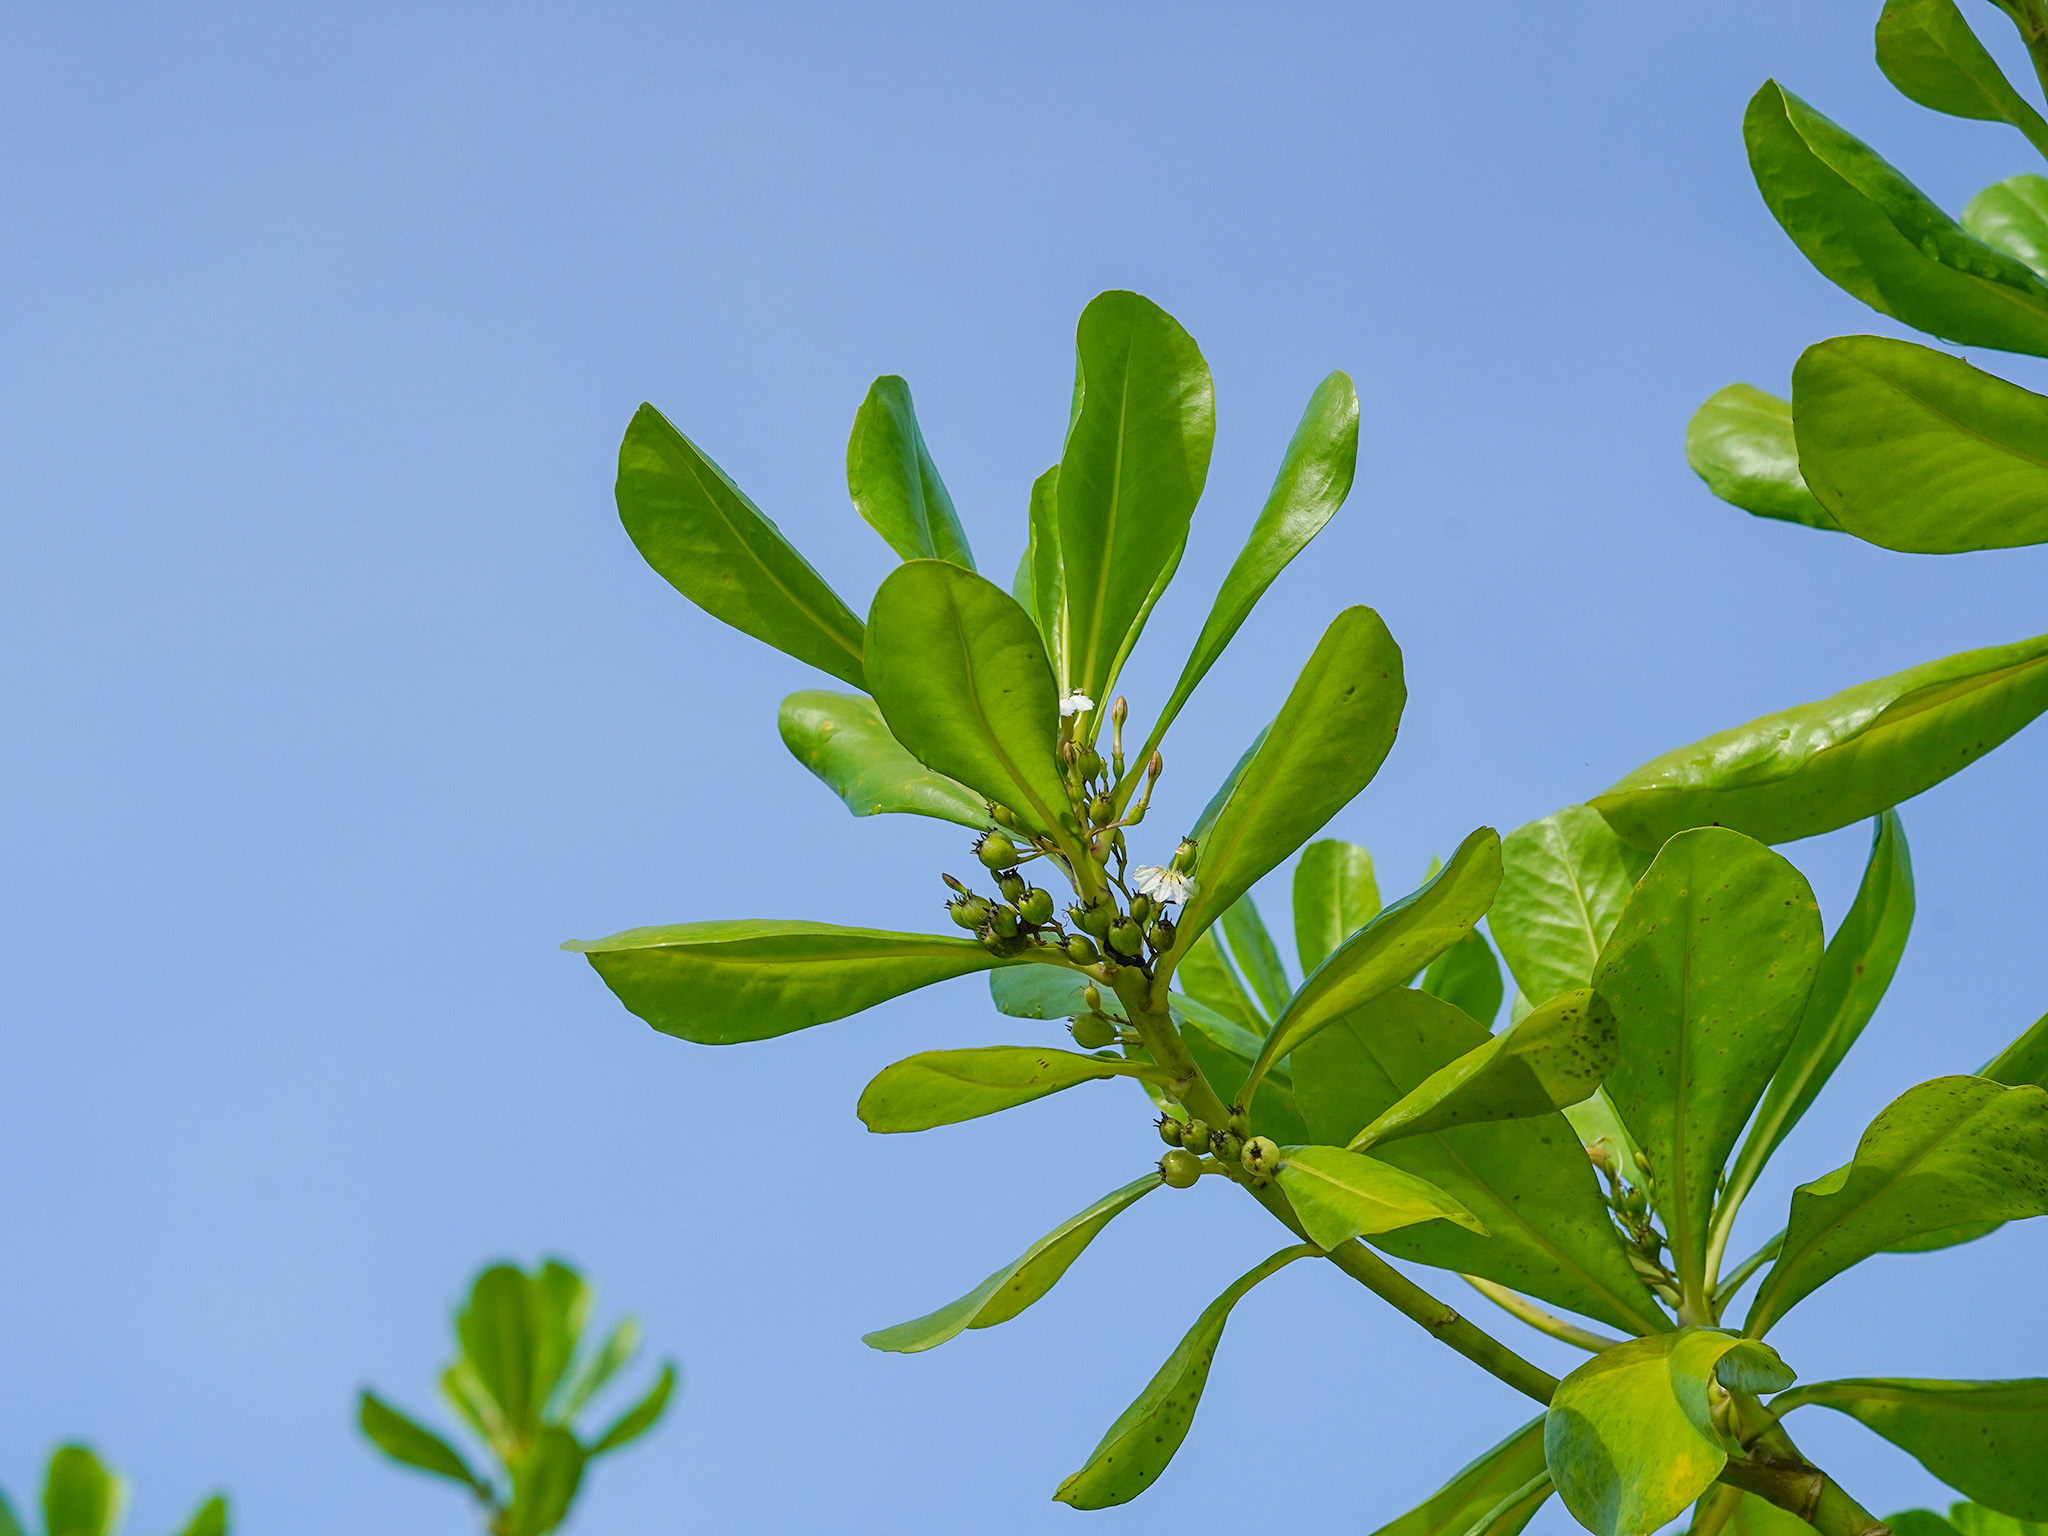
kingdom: Plantae
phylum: Tracheophyta
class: Magnoliopsida
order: Asterales
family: Goodeniaceae
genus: Scaevola
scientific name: Scaevola taccada
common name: Sea lettucetree
